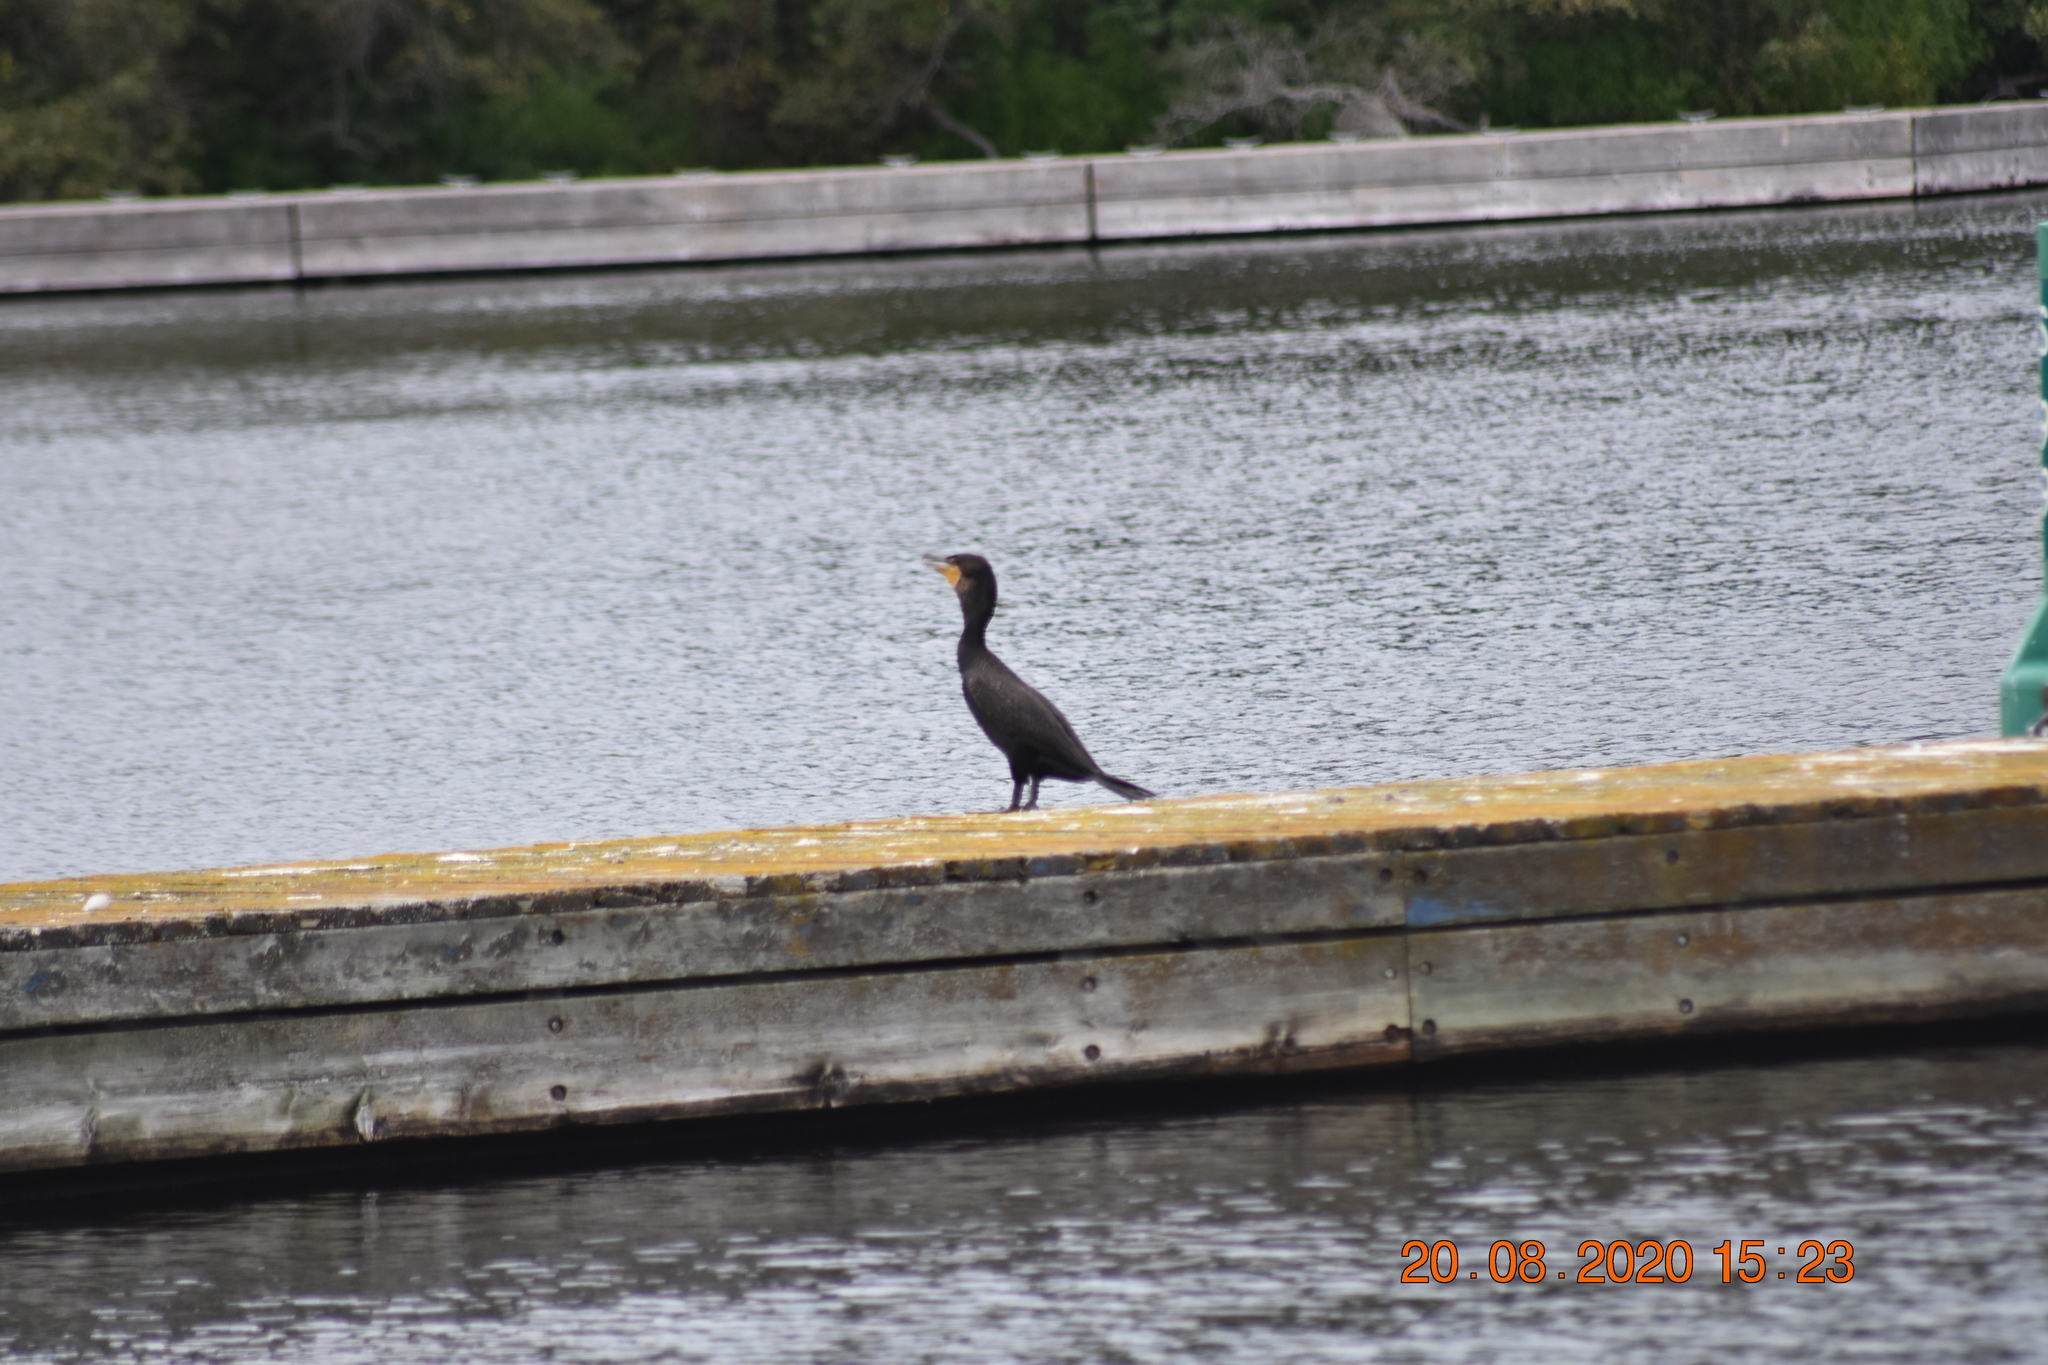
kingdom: Animalia
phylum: Chordata
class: Aves
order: Suliformes
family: Phalacrocoracidae
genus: Phalacrocorax
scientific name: Phalacrocorax auritus
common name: Double-crested cormorant
